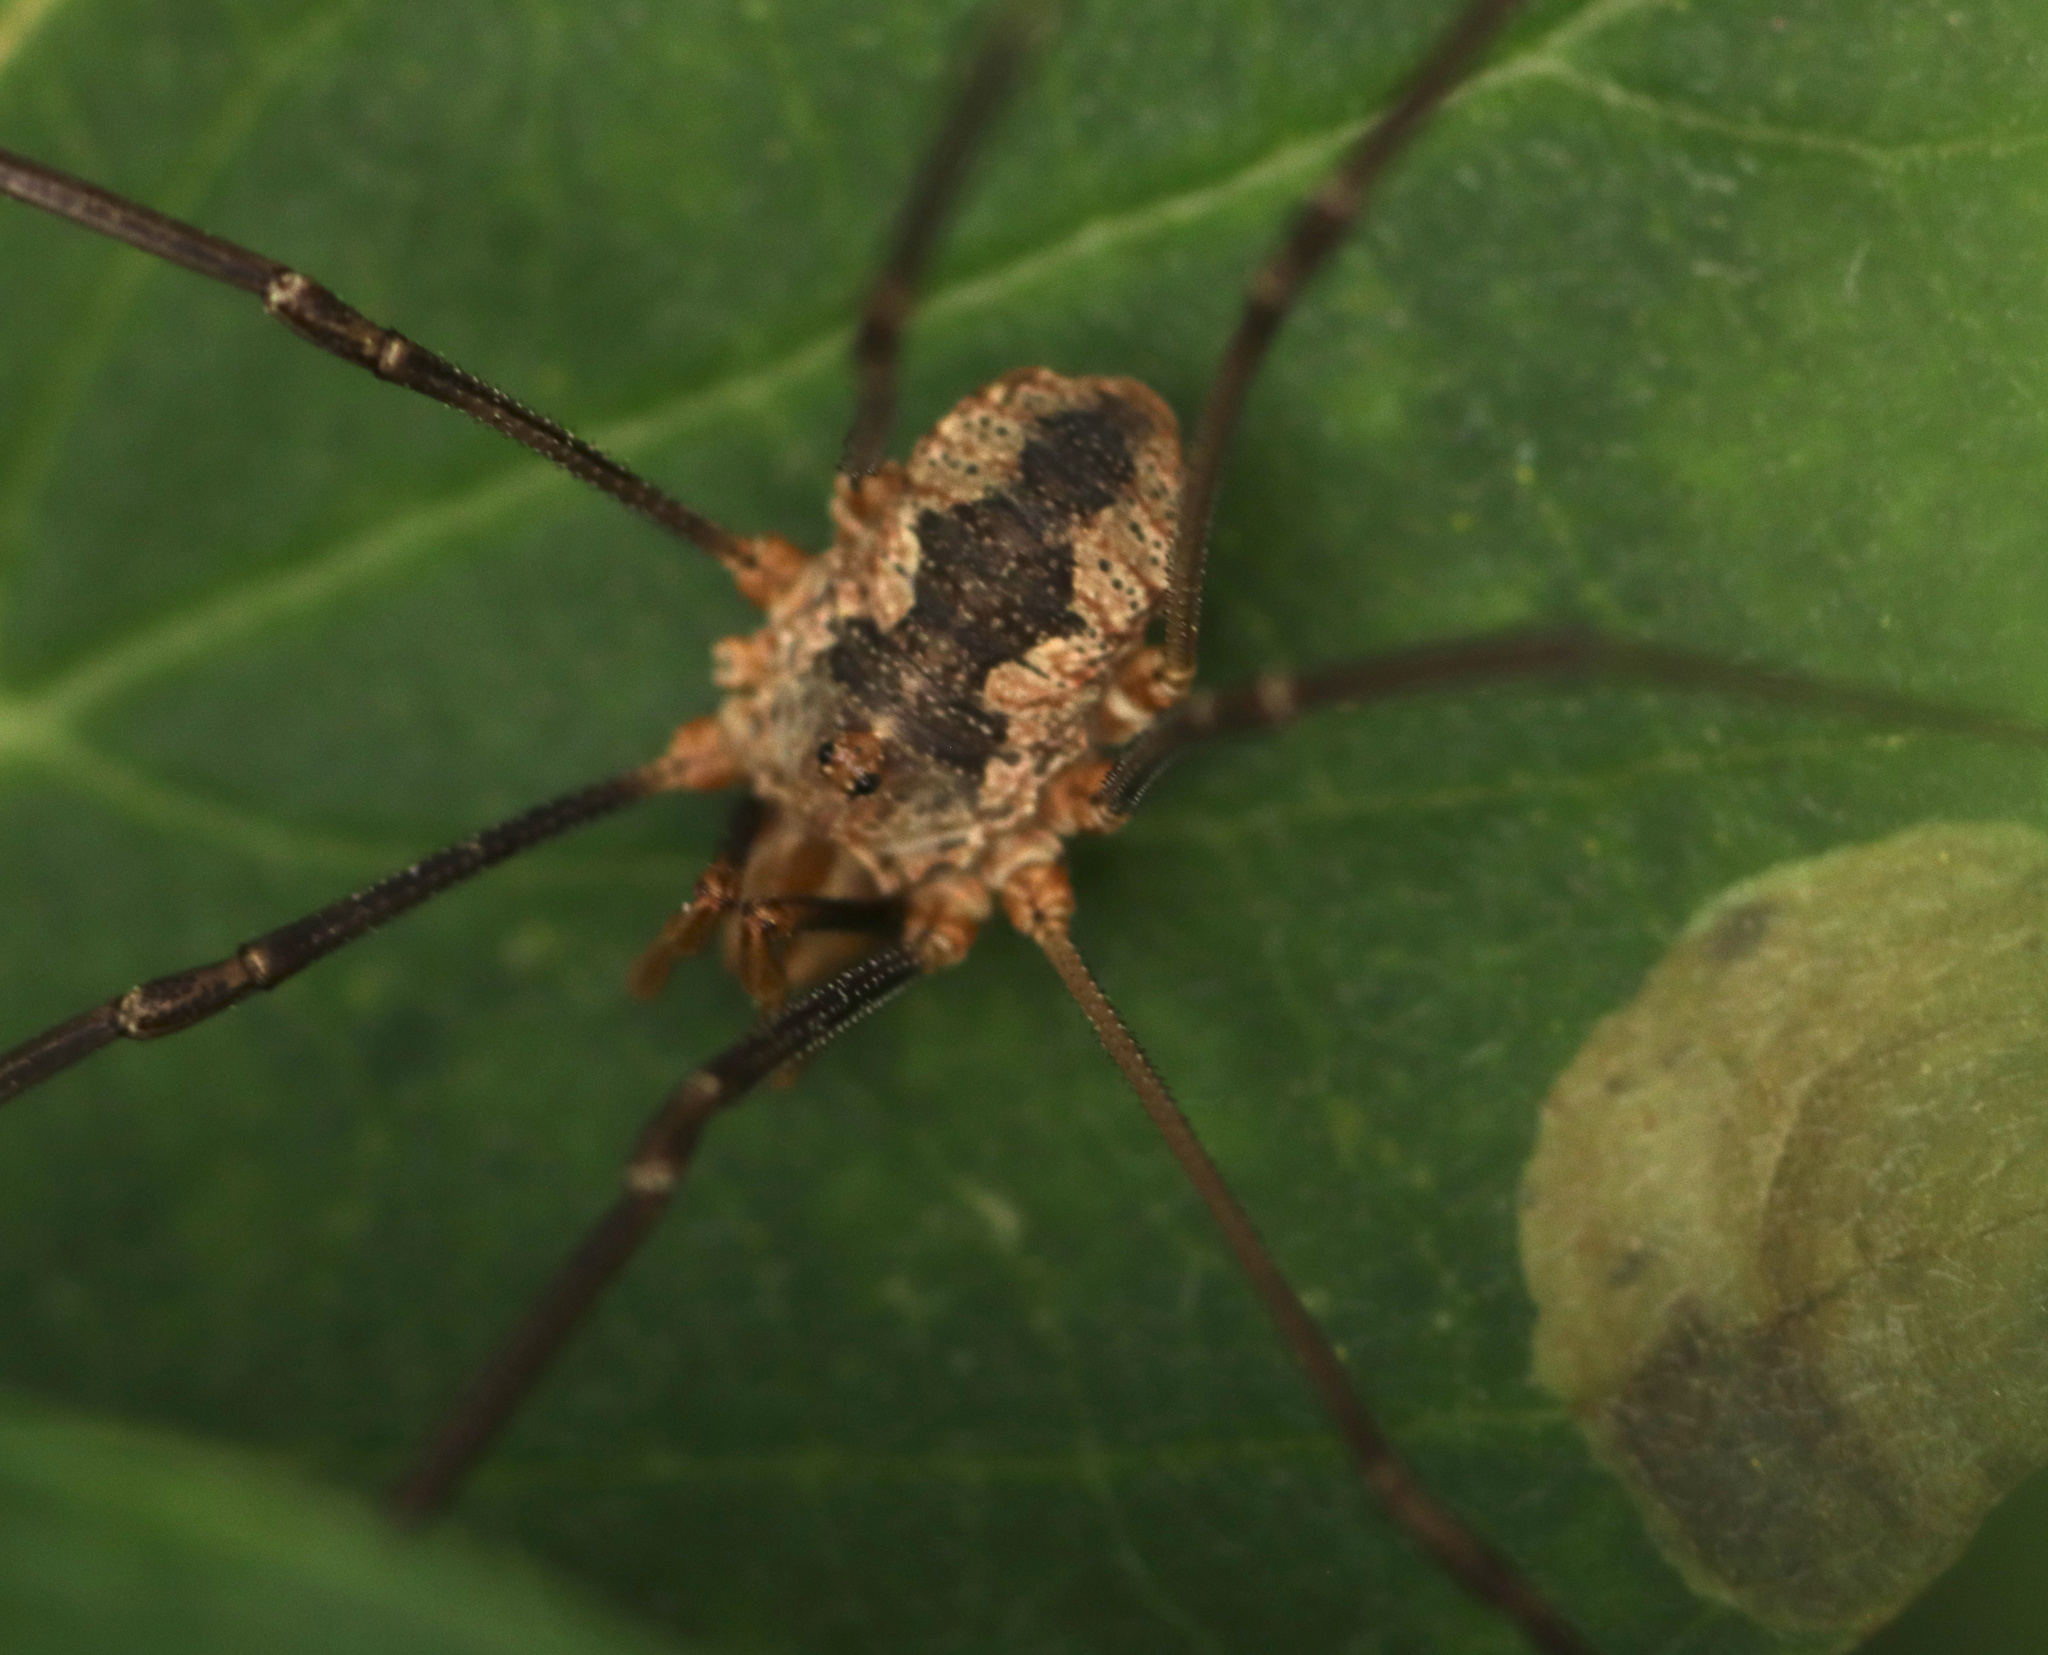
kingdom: Animalia
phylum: Arthropoda
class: Arachnida
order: Opiliones
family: Phalangiidae
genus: Phalangium
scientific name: Phalangium opilio
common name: Daddy longleg
